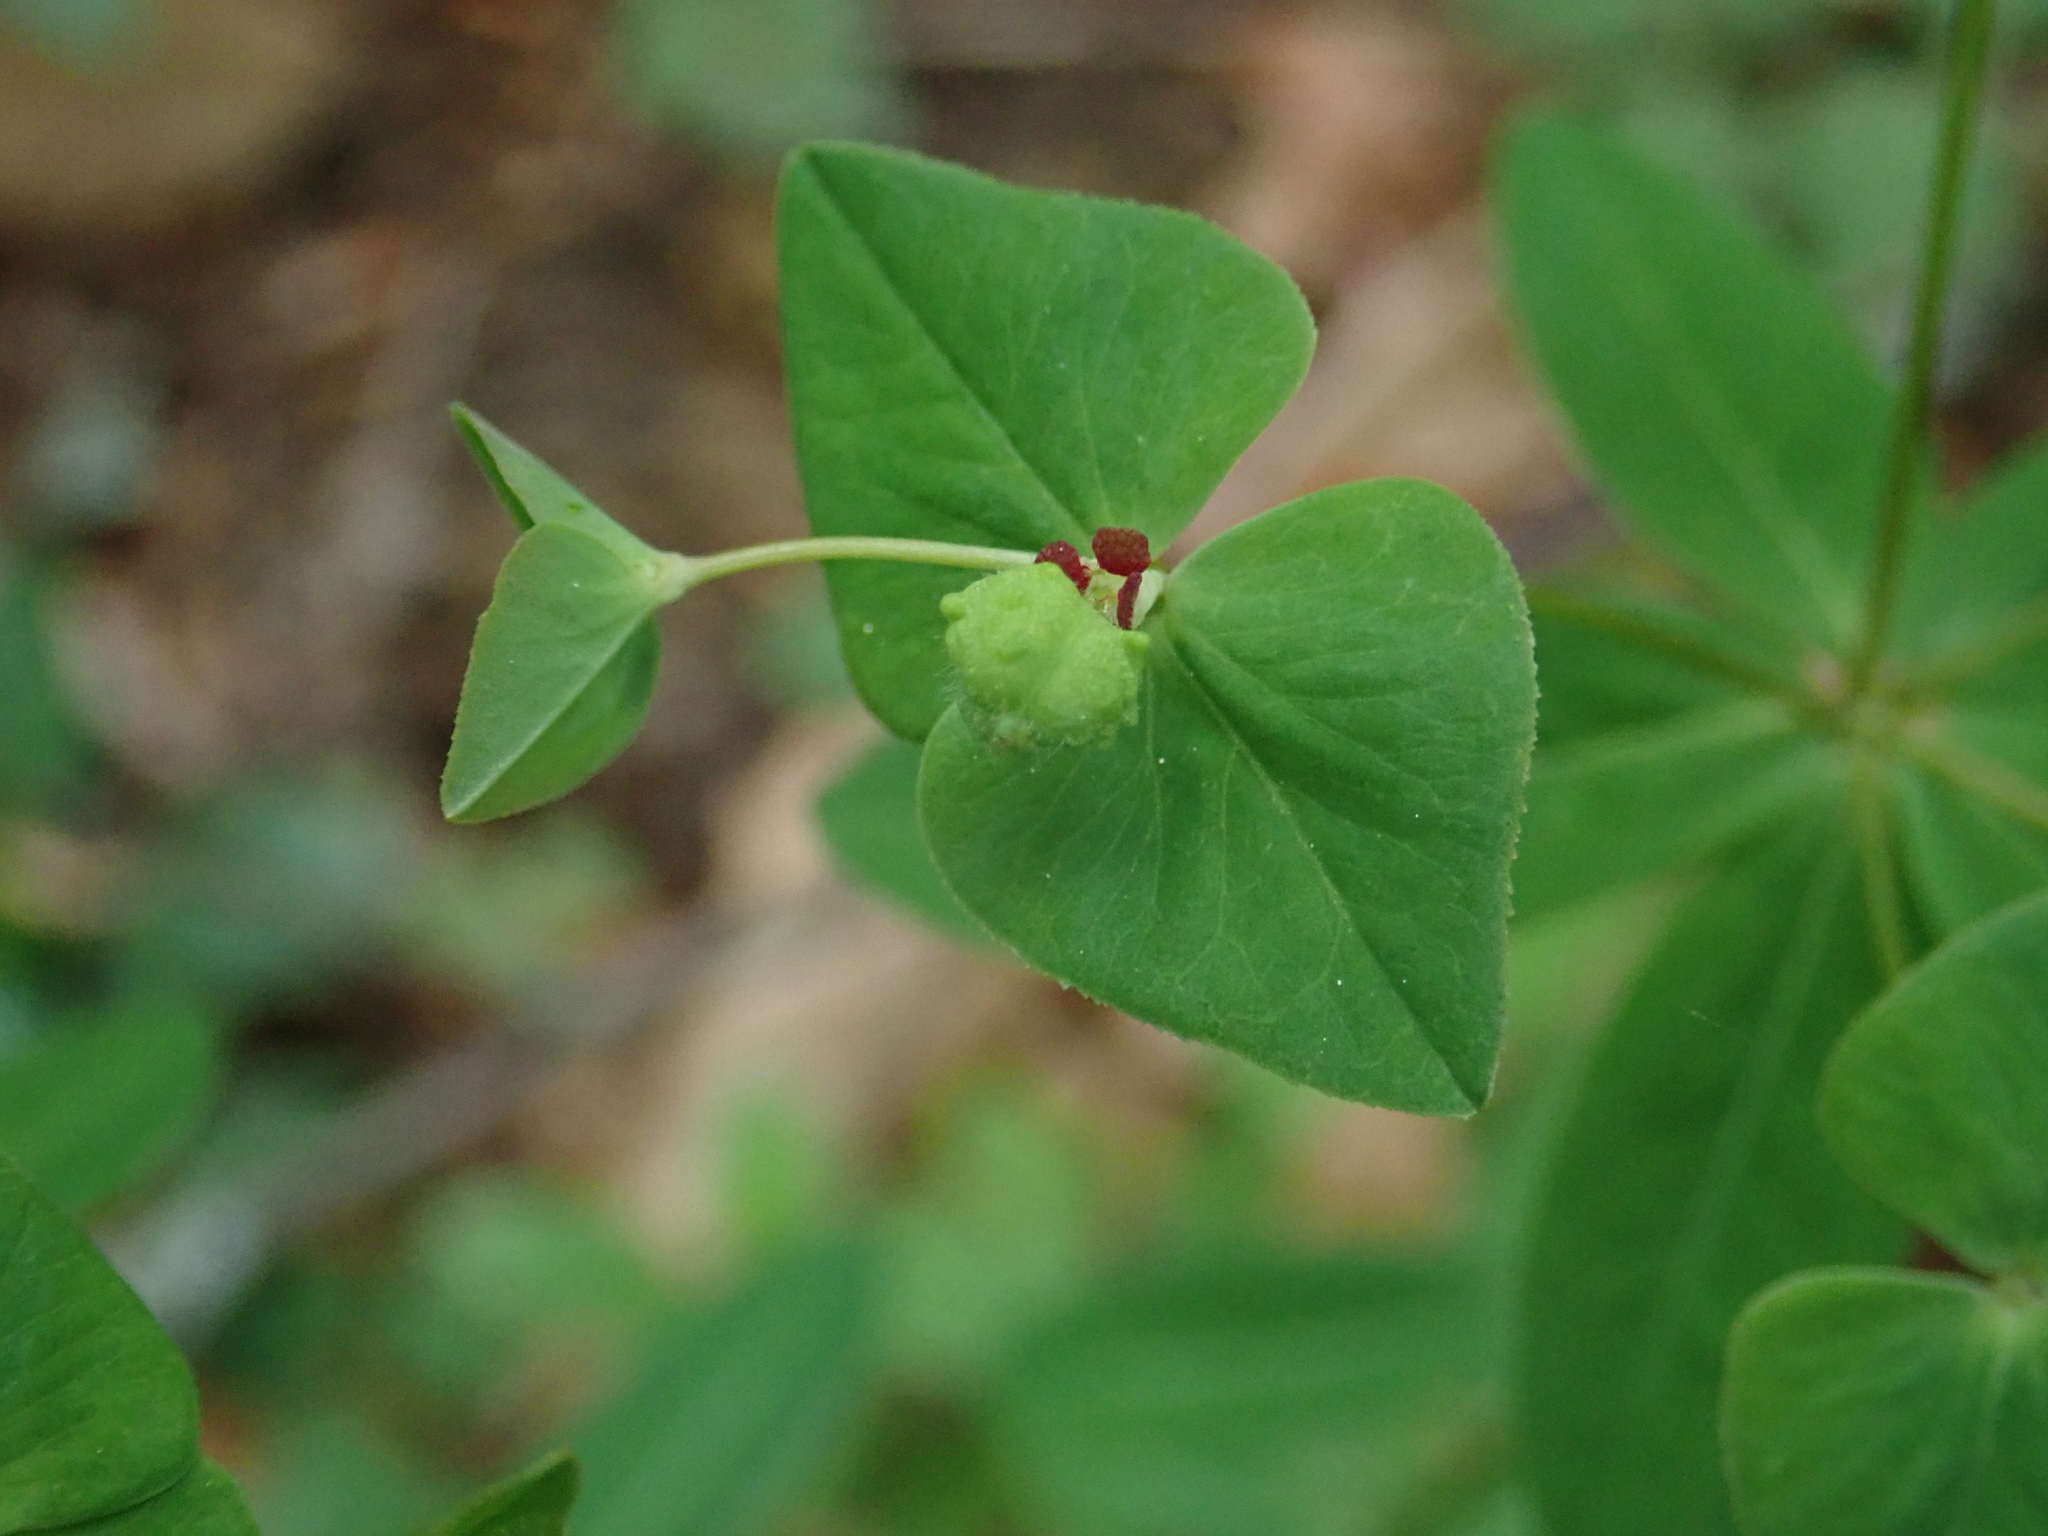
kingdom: Plantae
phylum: Tracheophyta
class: Magnoliopsida
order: Malpighiales
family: Euphorbiaceae
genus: Euphorbia
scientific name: Euphorbia dulcis
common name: Sweet spurge
